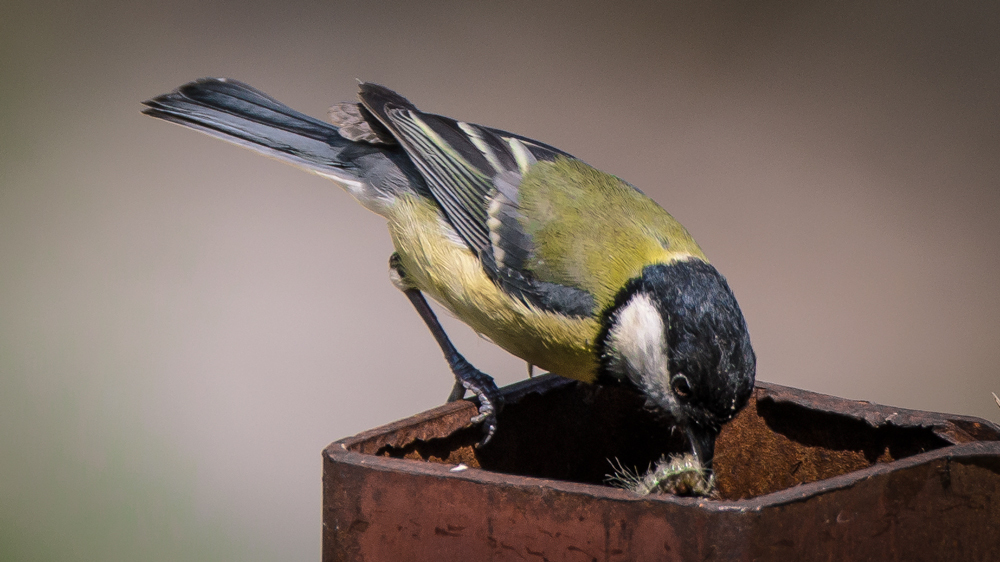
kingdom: Animalia
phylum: Chordata
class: Aves
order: Passeriformes
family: Paridae
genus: Parus
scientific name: Parus major
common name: Great tit
